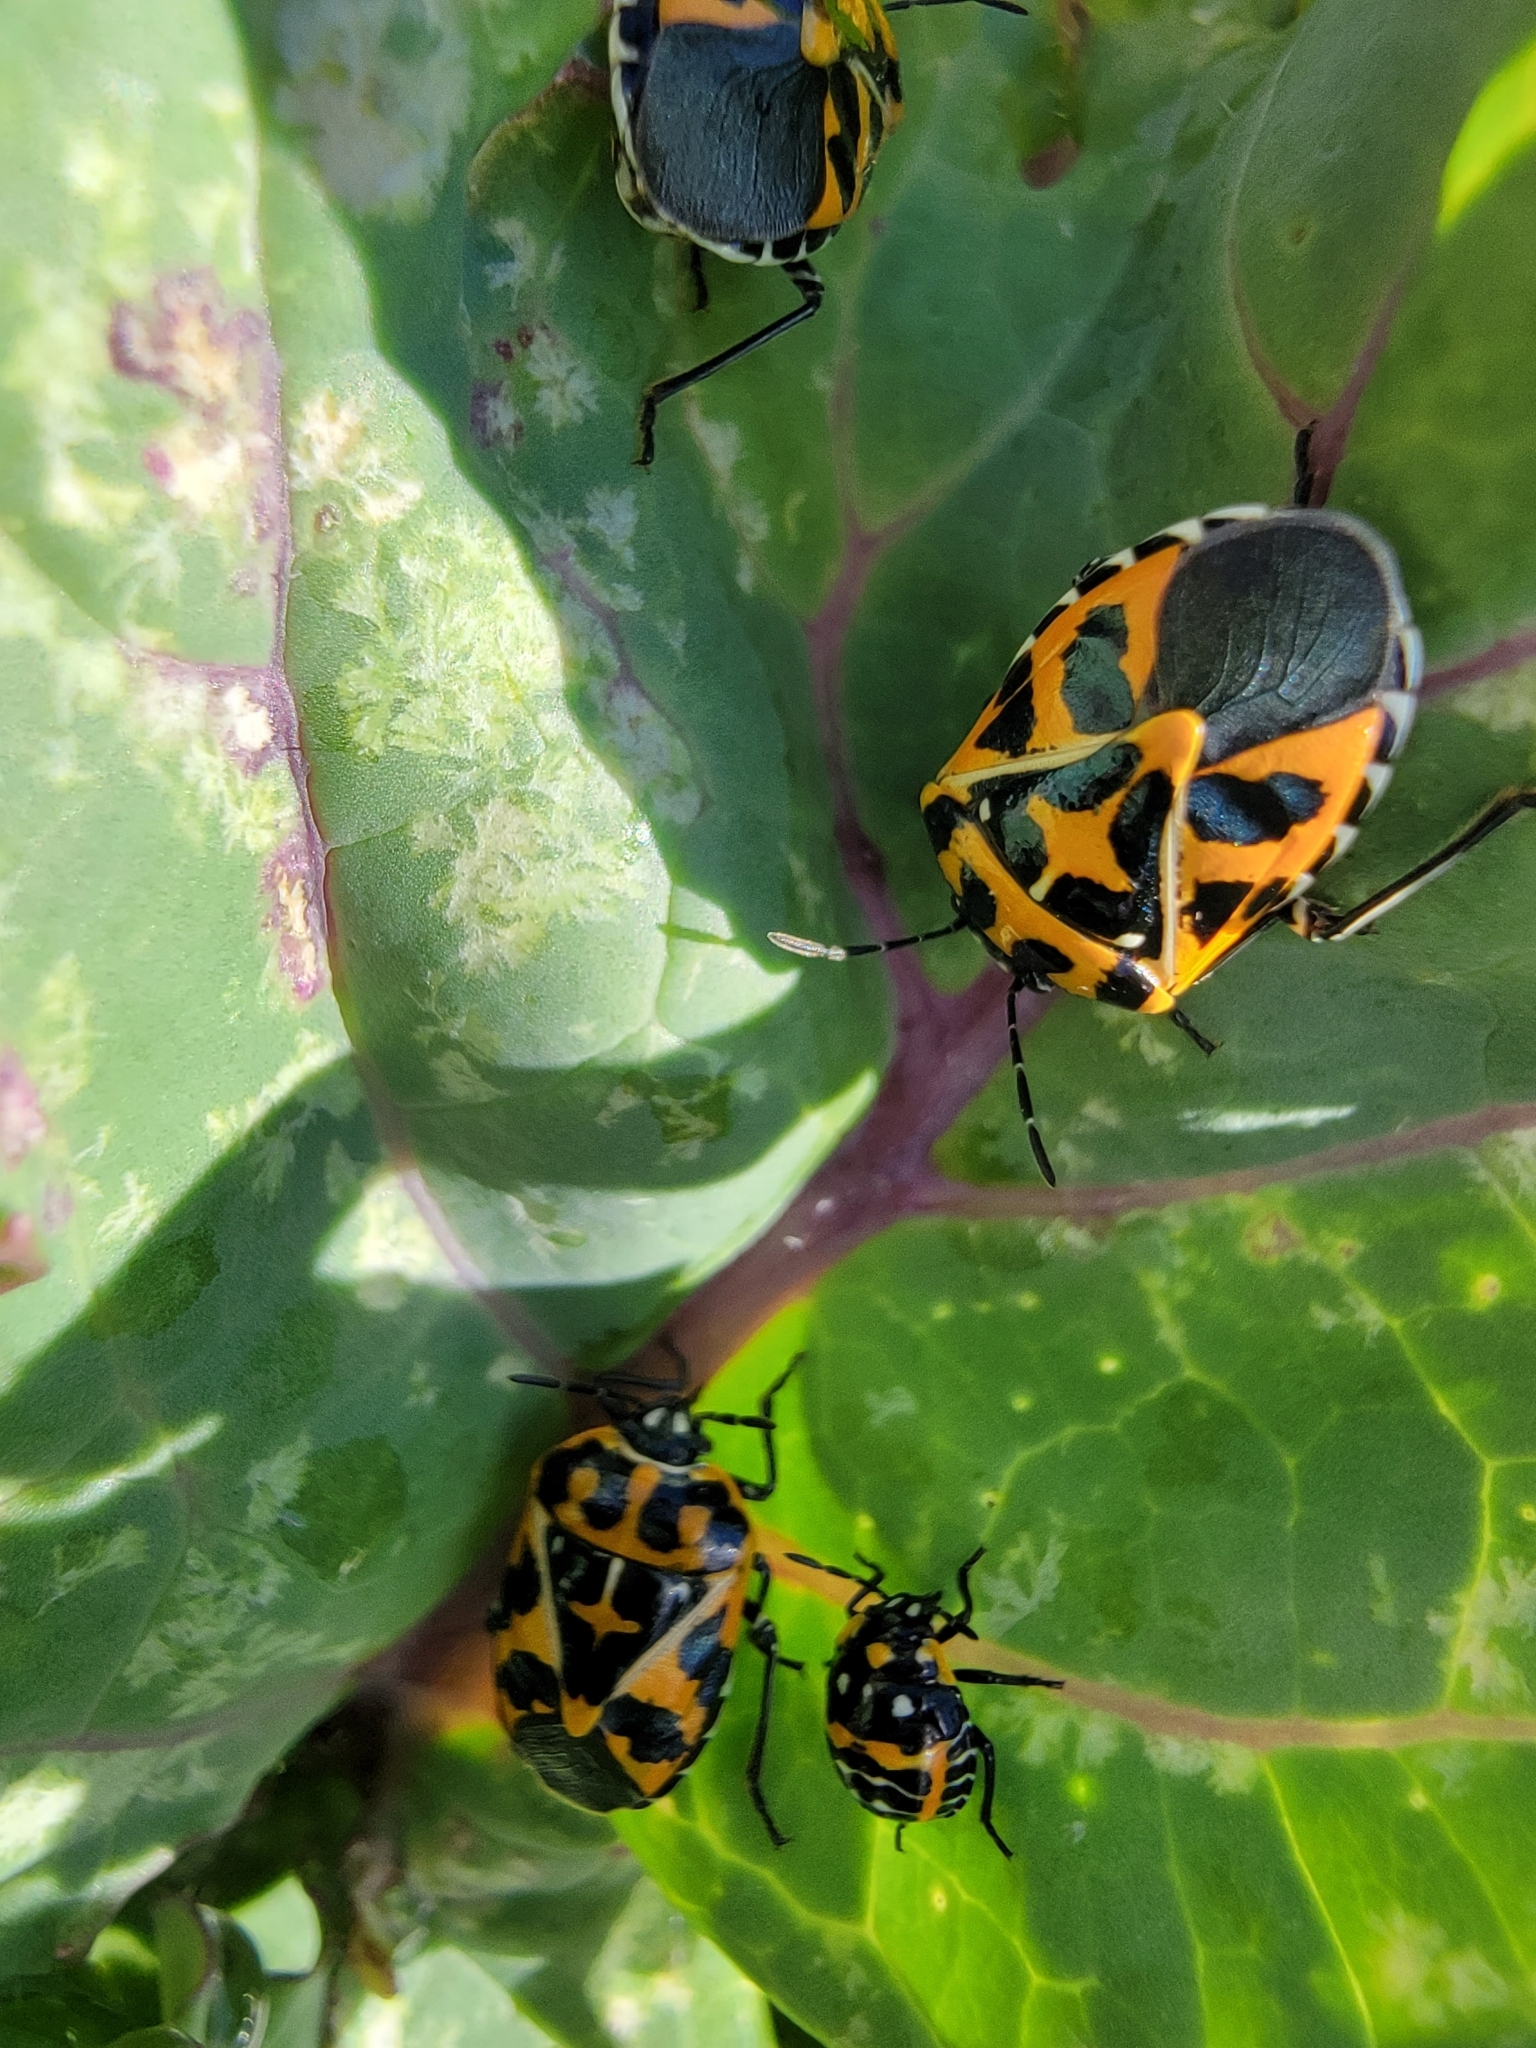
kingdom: Animalia
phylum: Arthropoda
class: Insecta
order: Hemiptera
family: Pentatomidae
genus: Murgantia
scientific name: Murgantia histrionica
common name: Harlequin bug
